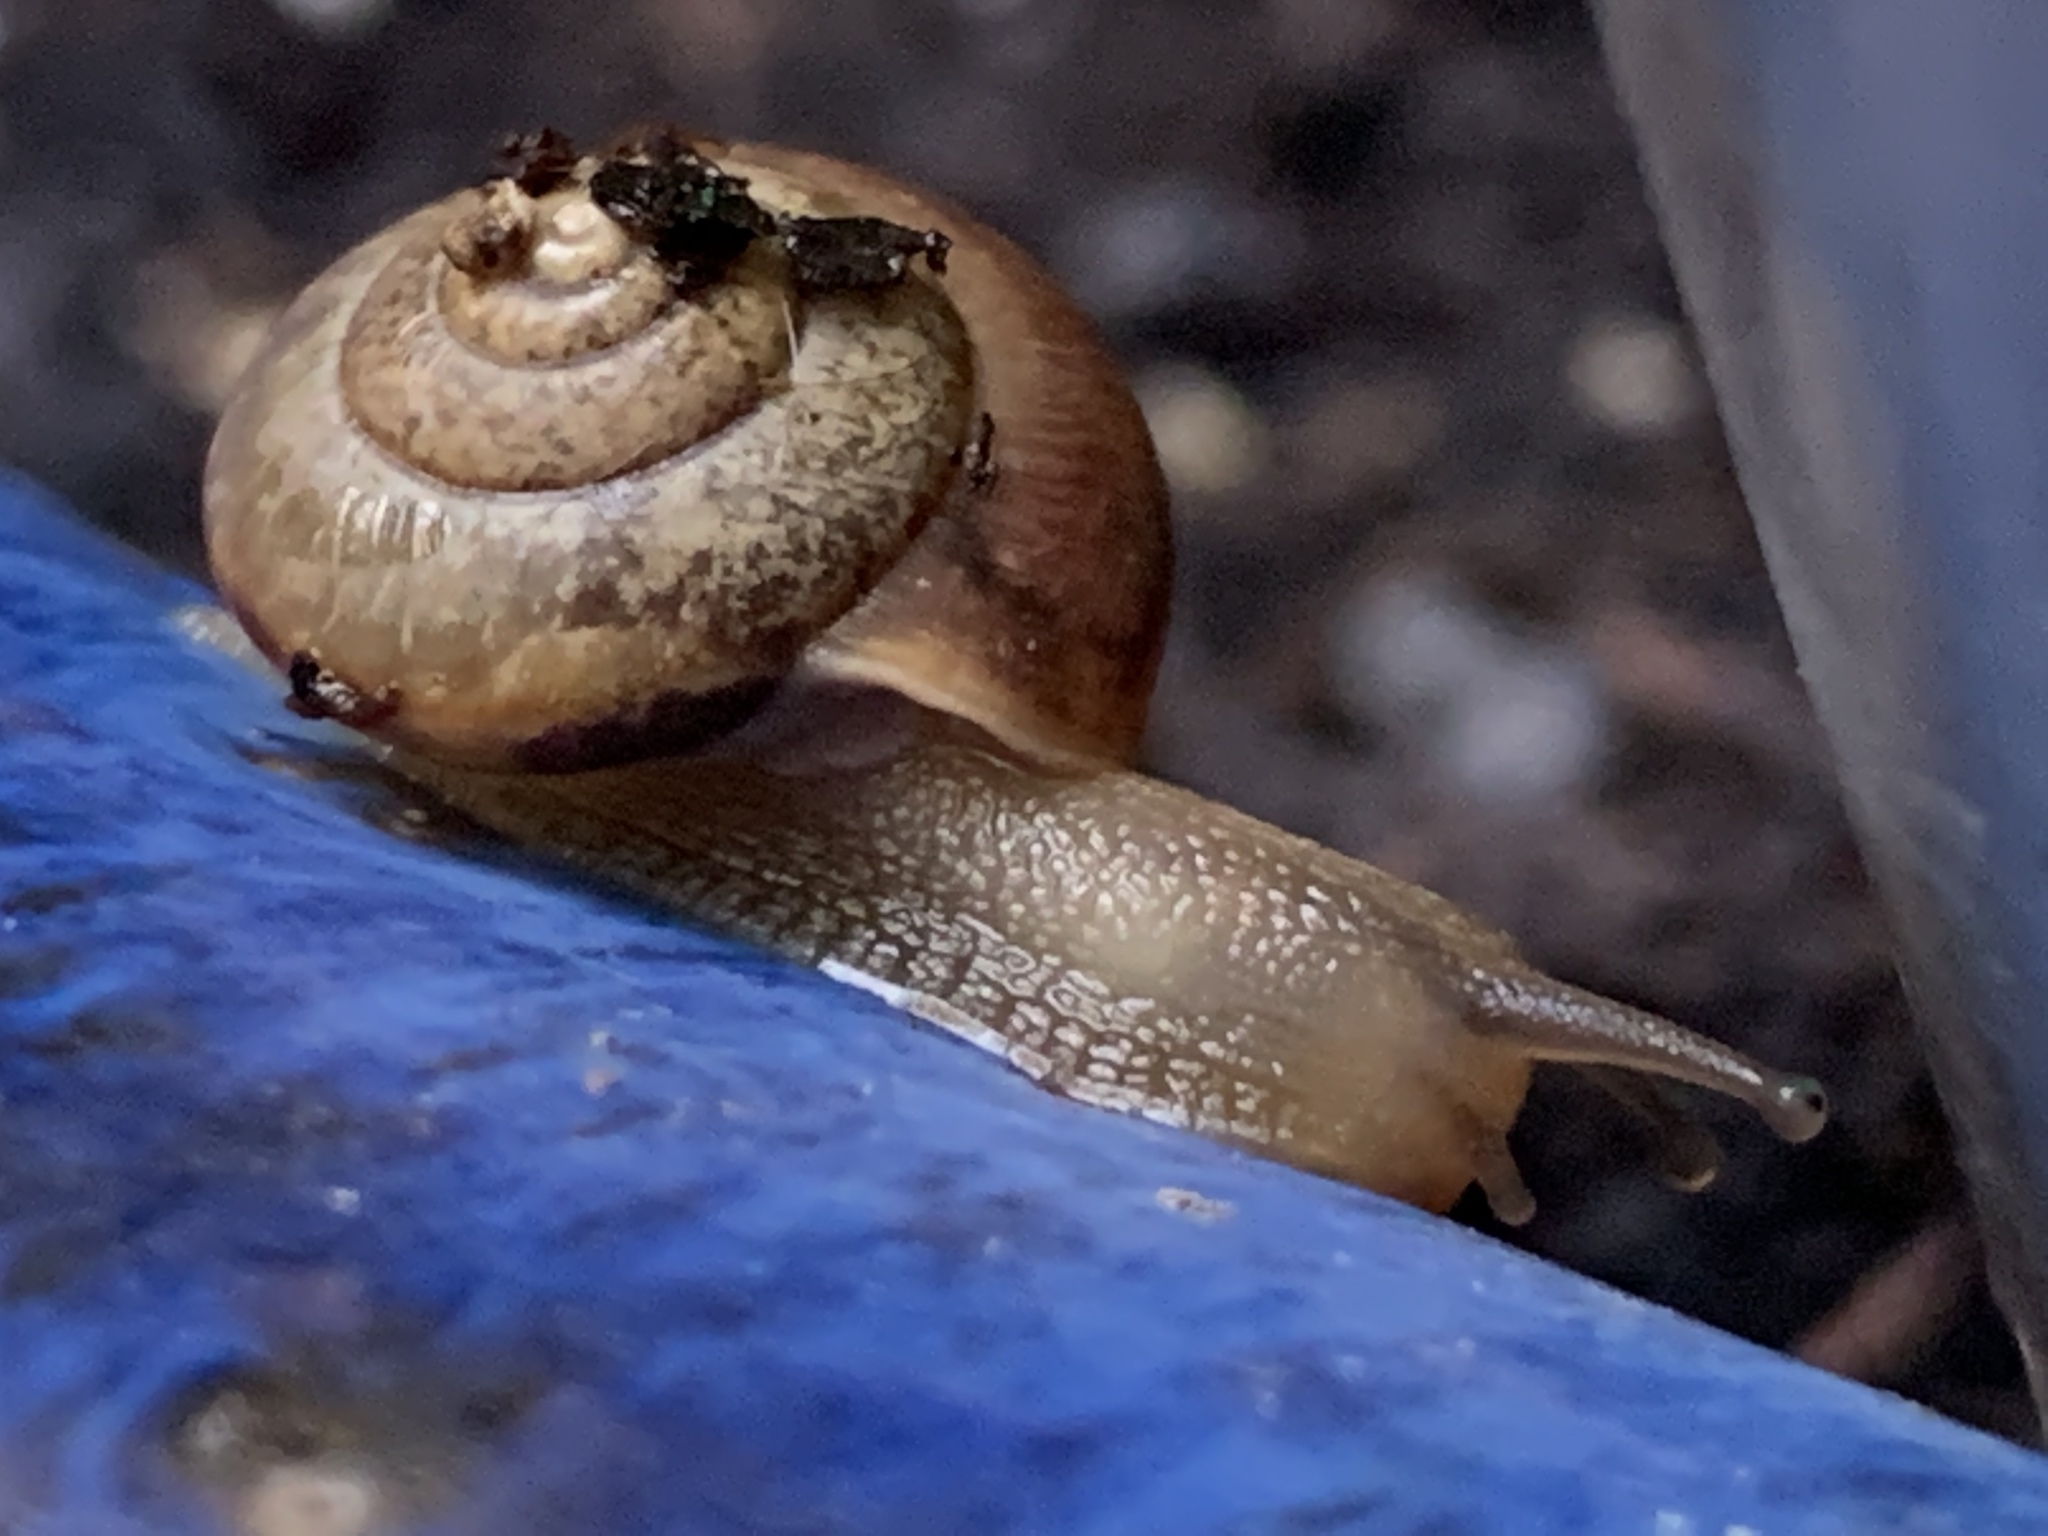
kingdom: Animalia
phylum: Mollusca
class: Gastropoda
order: Stylommatophora
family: Camaenidae
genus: Bradybaena
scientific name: Bradybaena similaris
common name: Asian trampsnail
